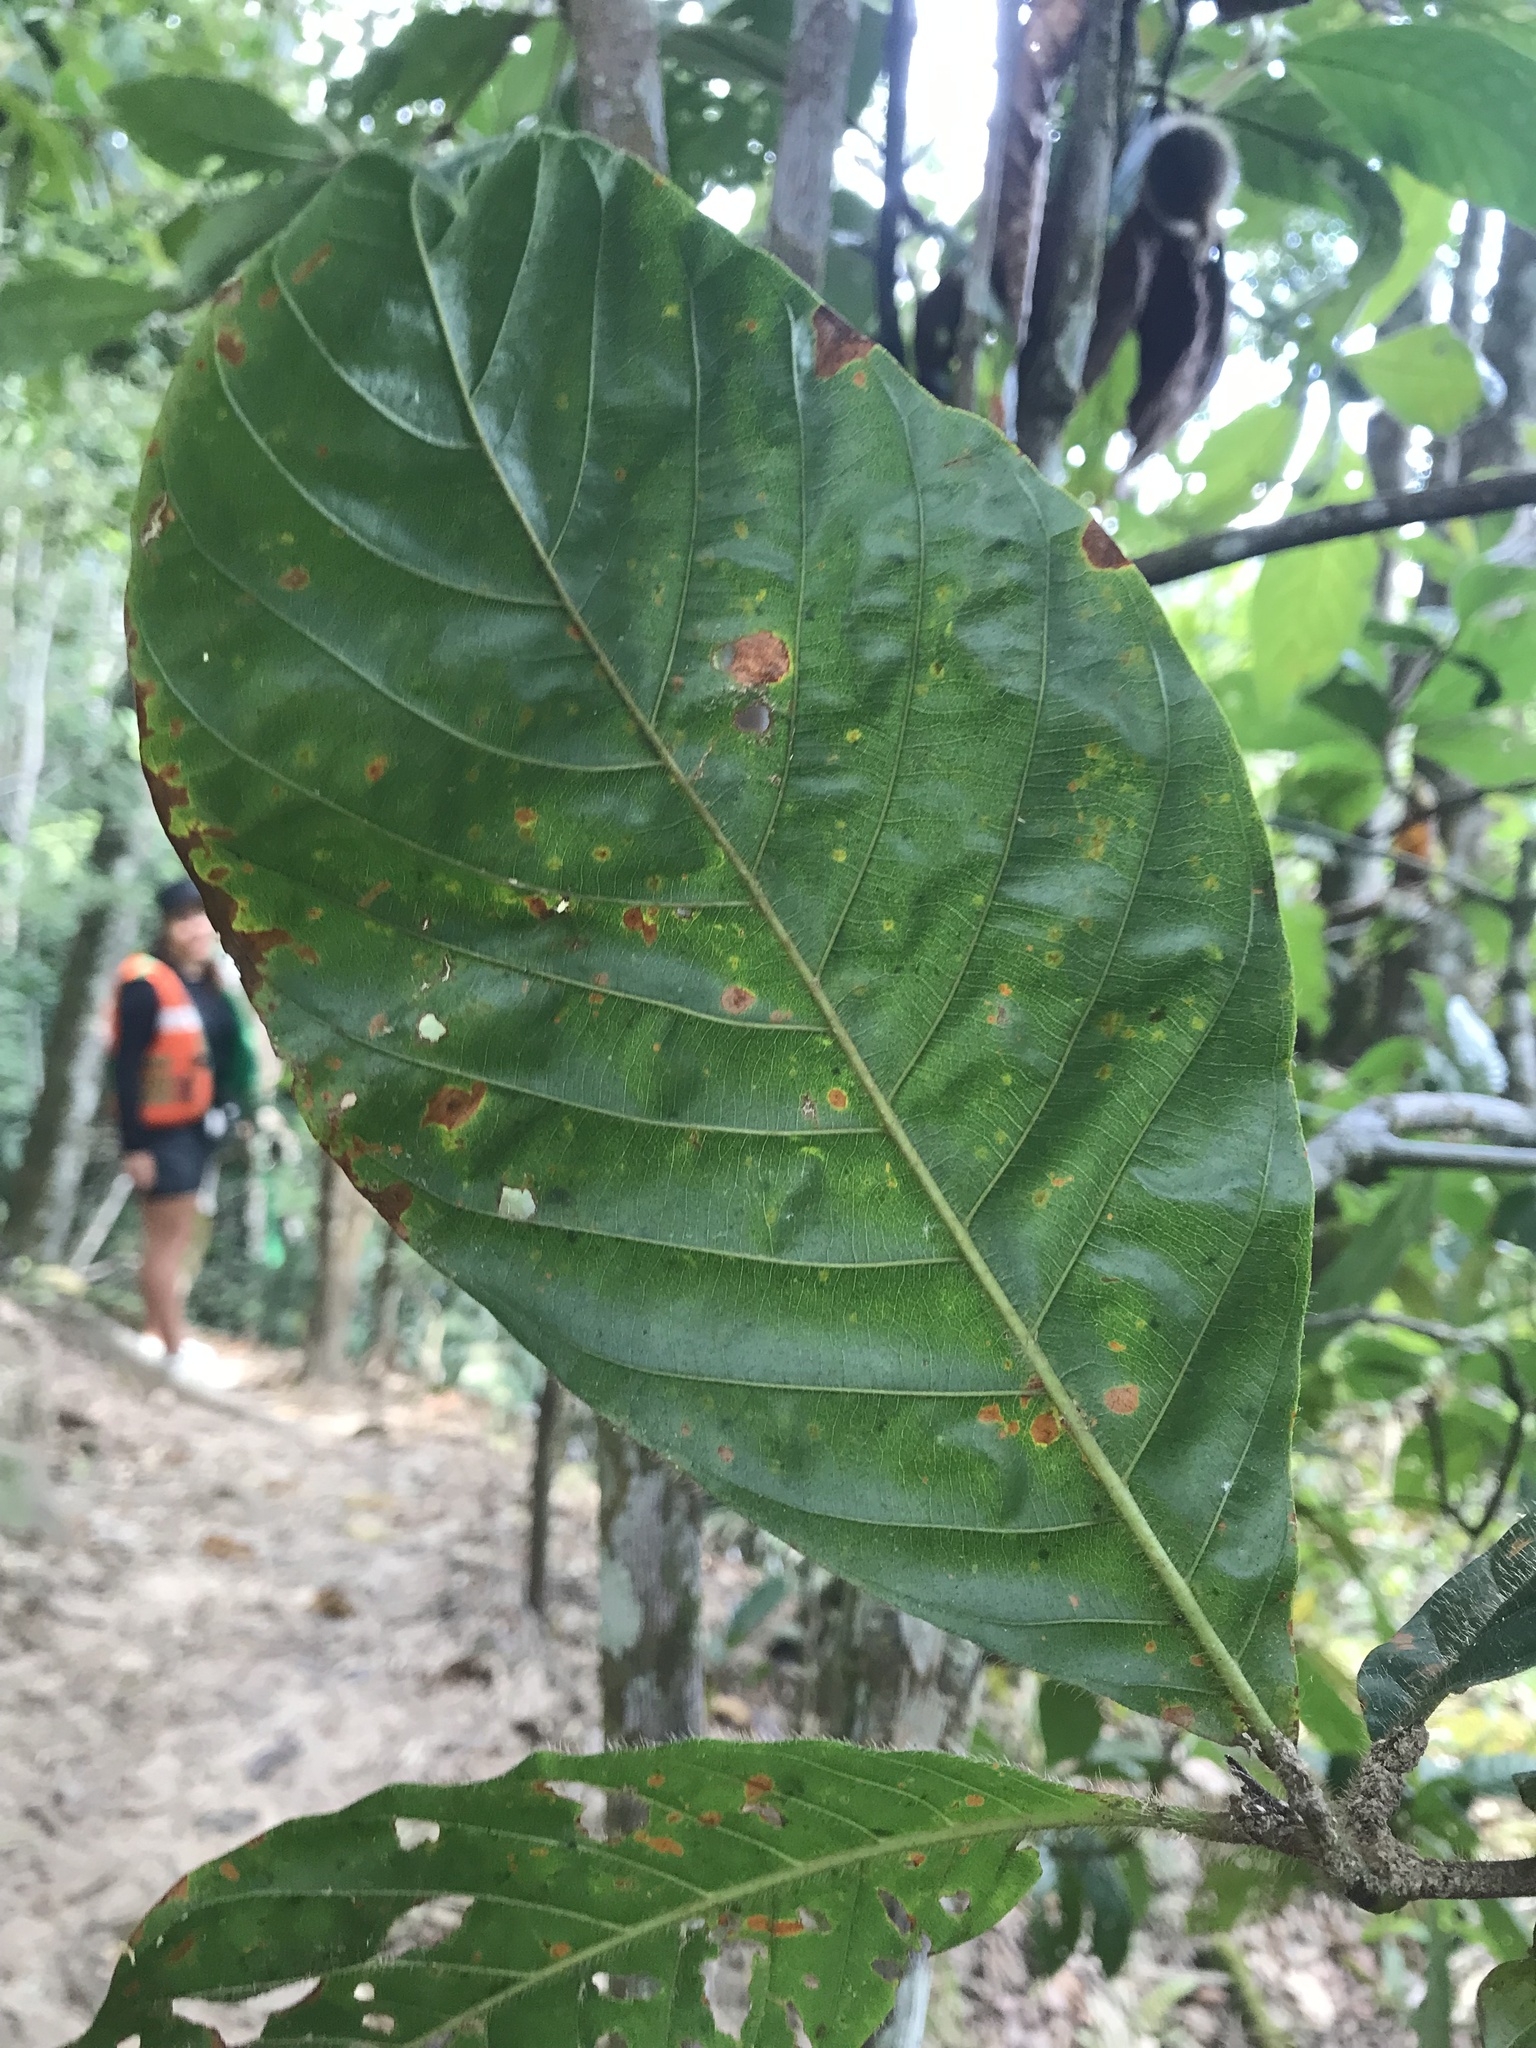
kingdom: Plantae
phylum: Tracheophyta
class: Magnoliopsida
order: Gentianales
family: Rubiaceae
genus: Duroia
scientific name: Duroia hirsuta
